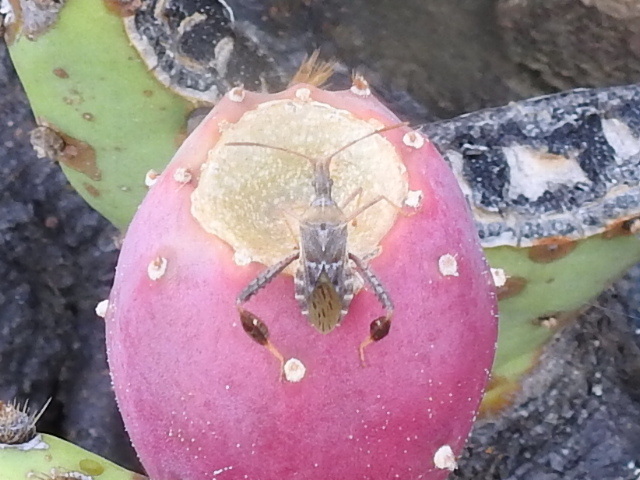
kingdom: Animalia
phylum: Arthropoda
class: Insecta
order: Hemiptera
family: Coreidae
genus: Narnia
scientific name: Narnia femorata
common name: Leaf-footed cactus bug
